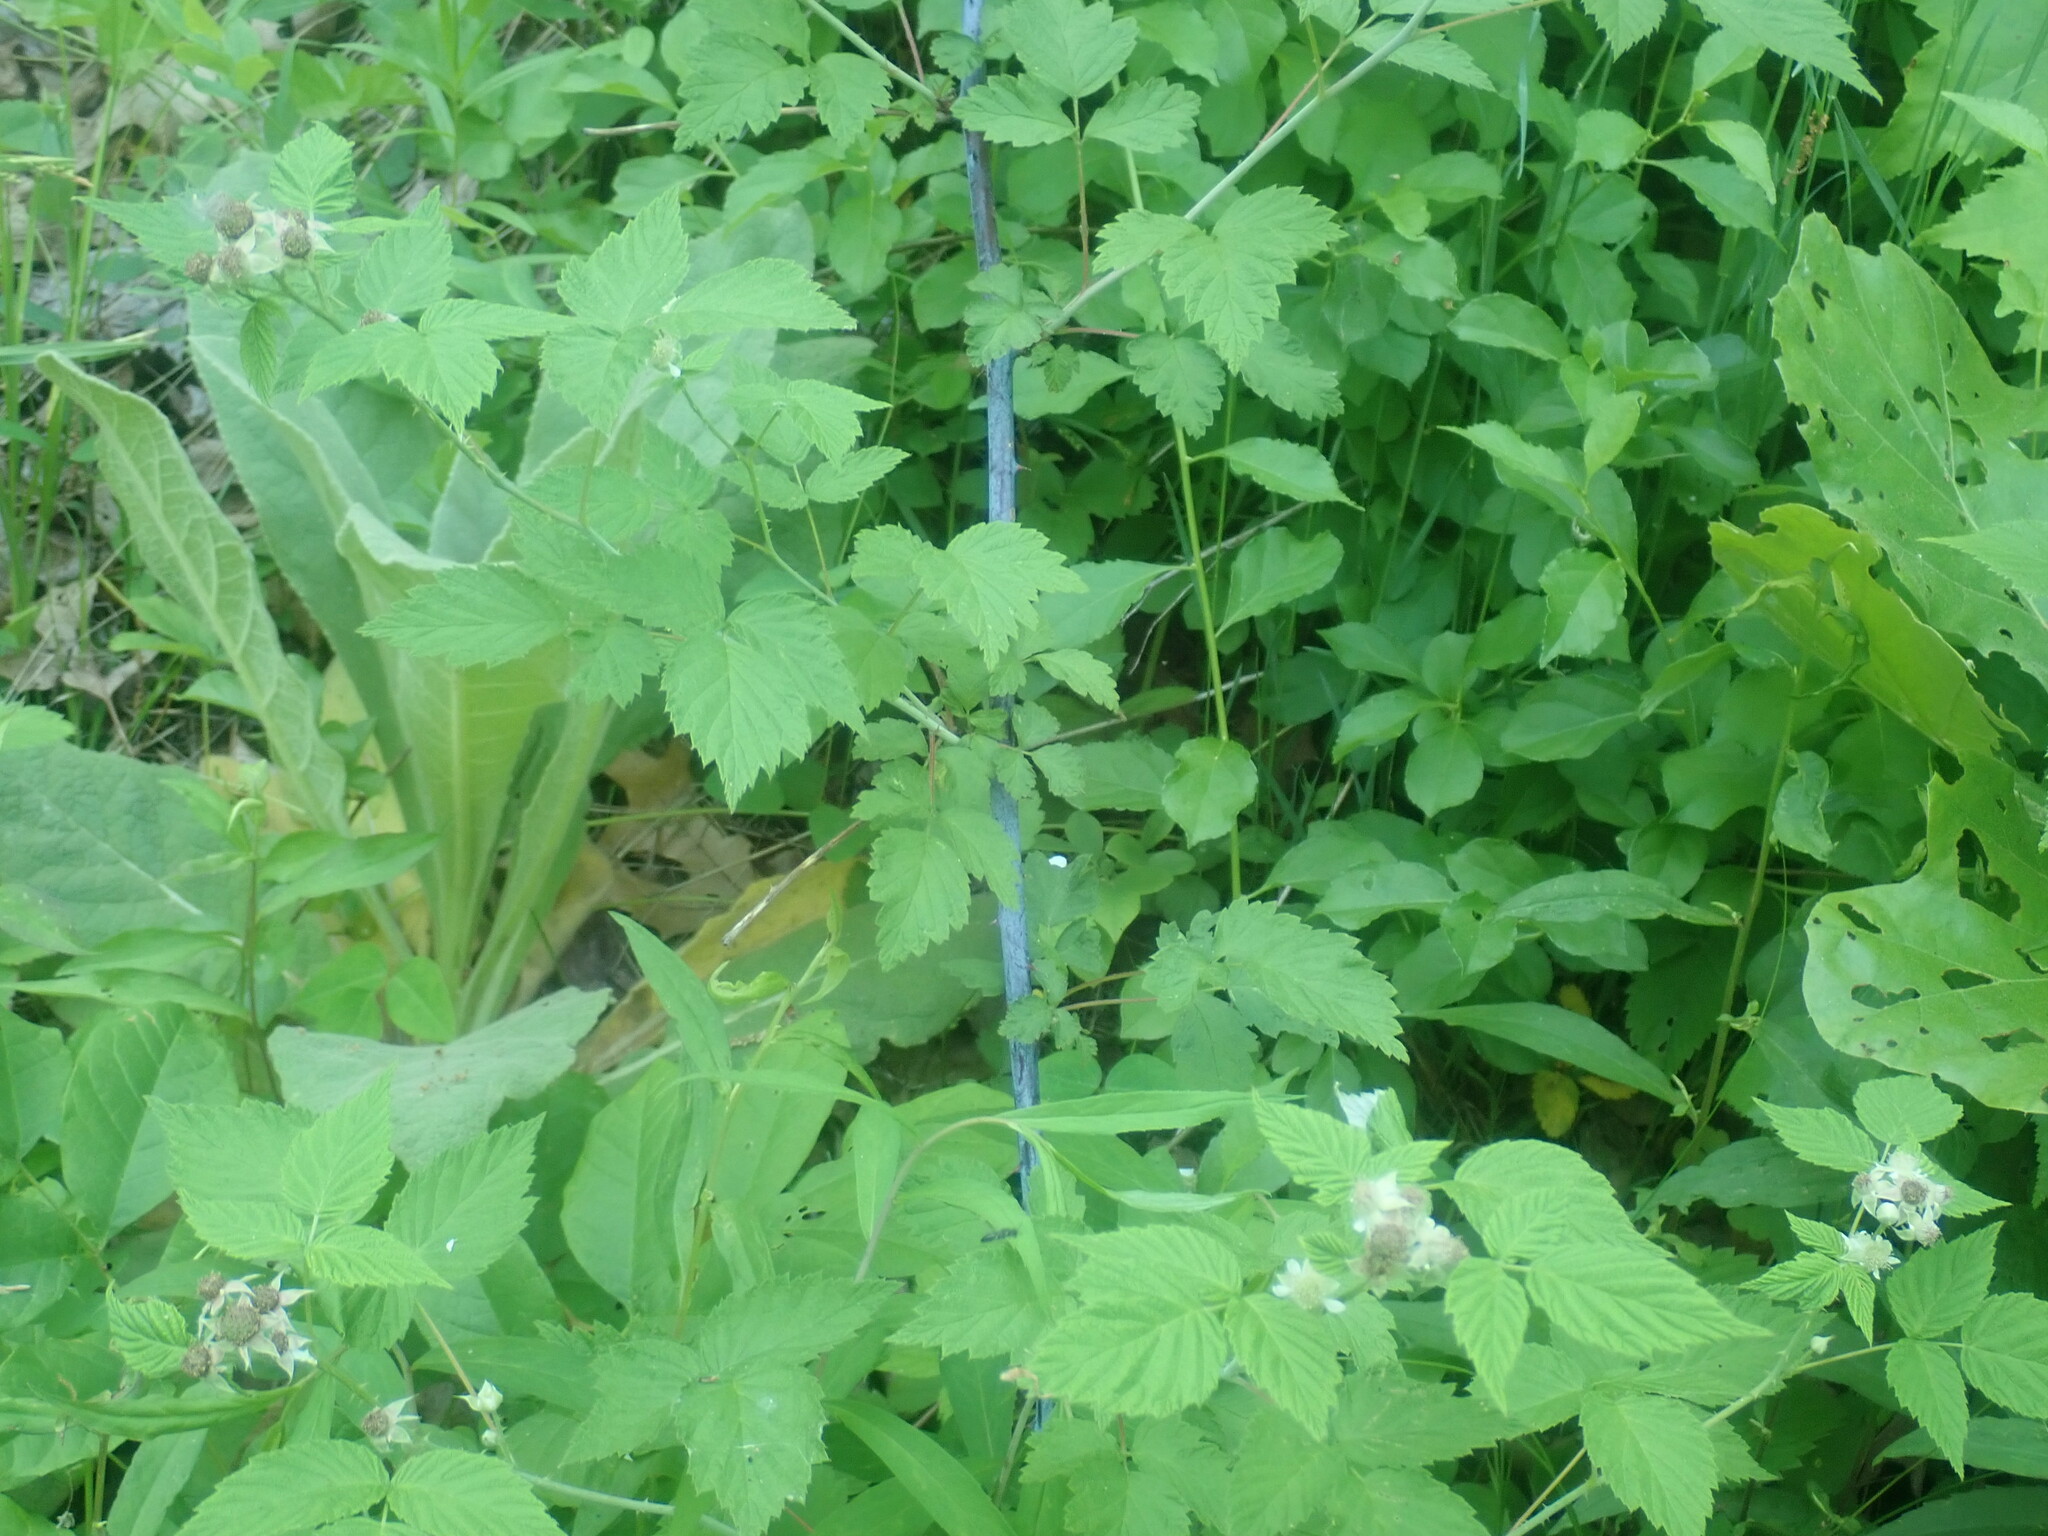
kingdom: Plantae
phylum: Tracheophyta
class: Magnoliopsida
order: Rosales
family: Rosaceae
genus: Rubus
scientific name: Rubus occidentalis
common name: Black raspberry
